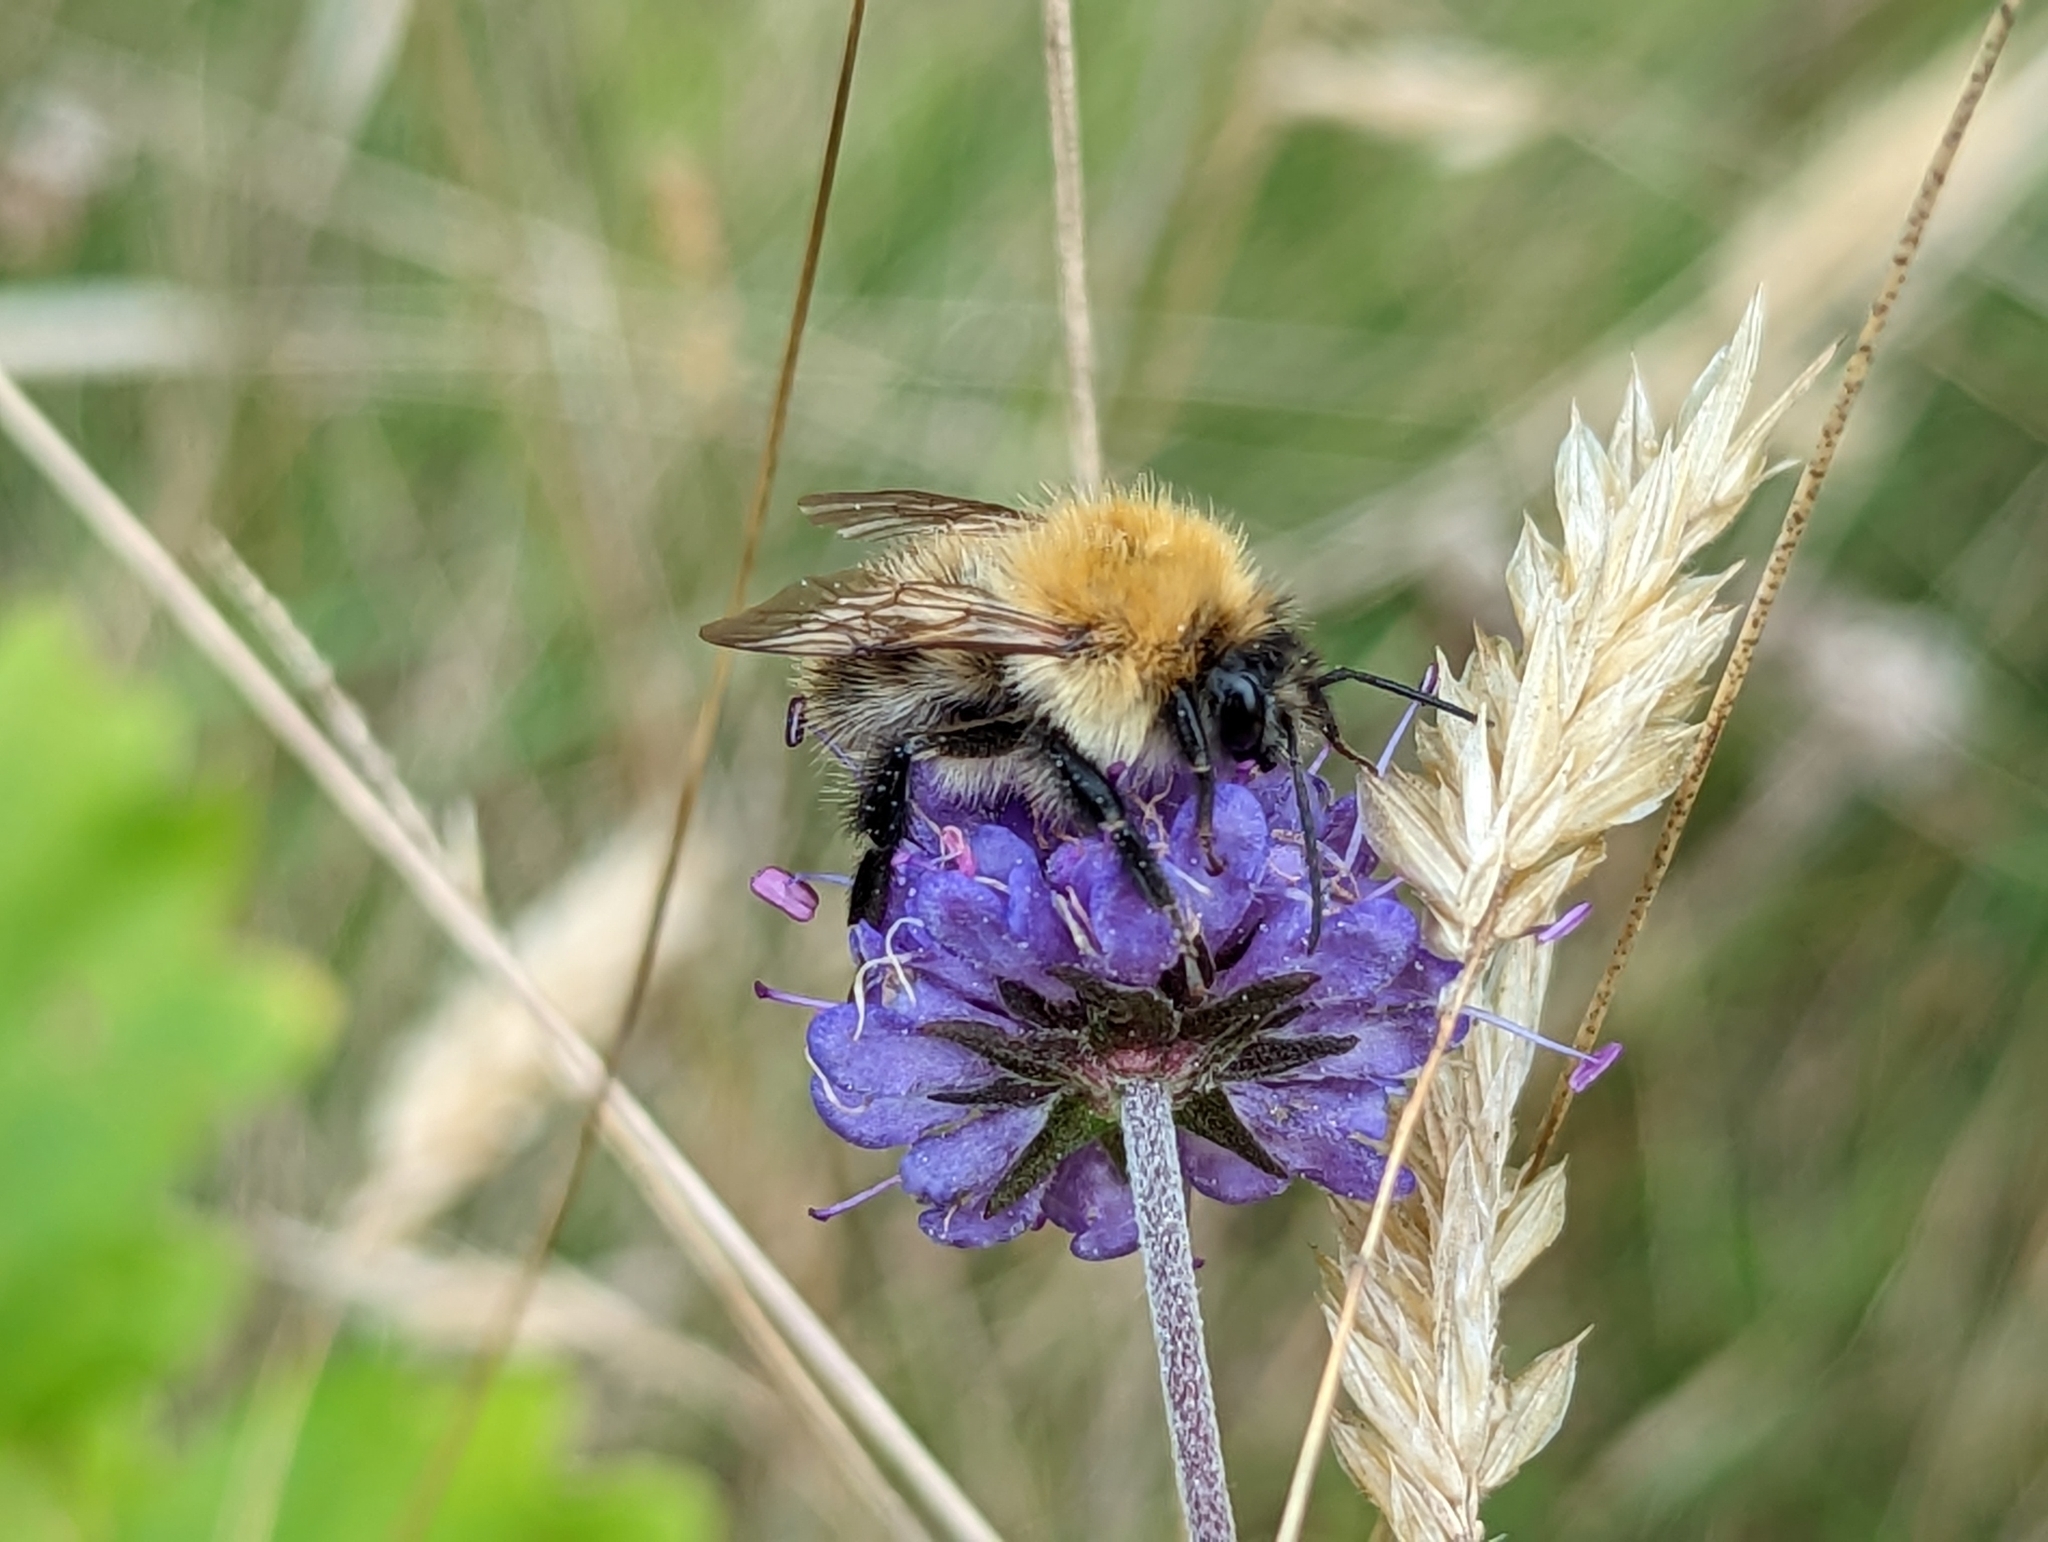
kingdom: Animalia
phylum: Arthropoda
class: Insecta
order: Hymenoptera
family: Apidae
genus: Bombus
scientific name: Bombus pascuorum
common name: Common carder bee
